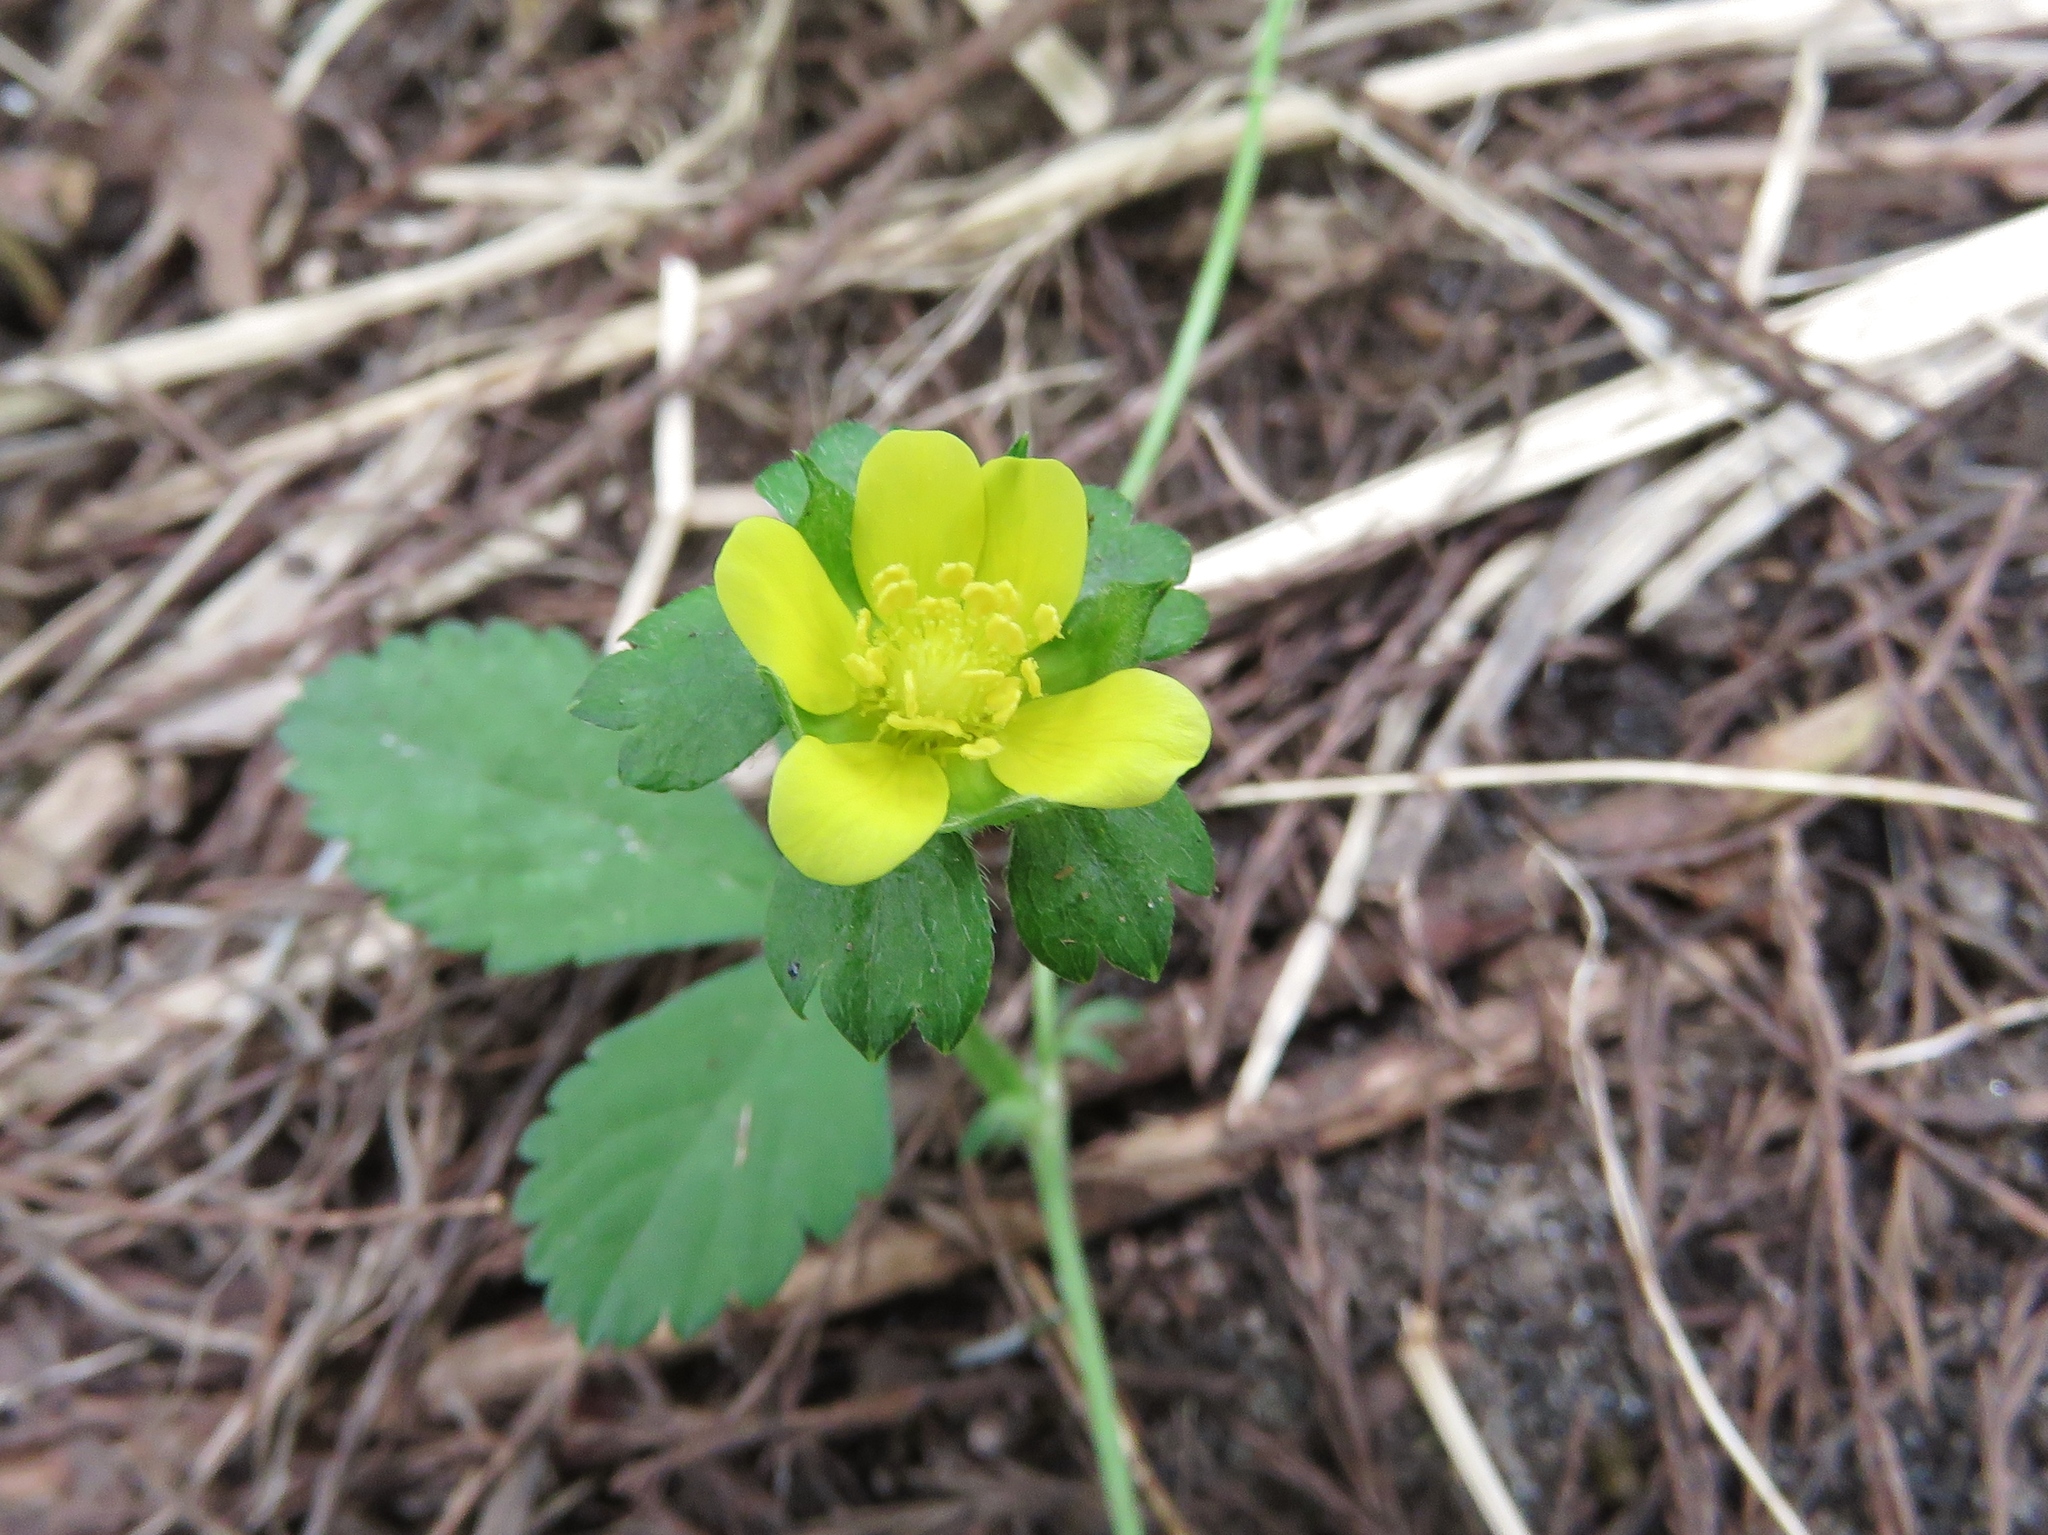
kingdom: Plantae
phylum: Tracheophyta
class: Magnoliopsida
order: Rosales
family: Rosaceae
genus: Potentilla
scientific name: Potentilla indica
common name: Yellow-flowered strawberry
